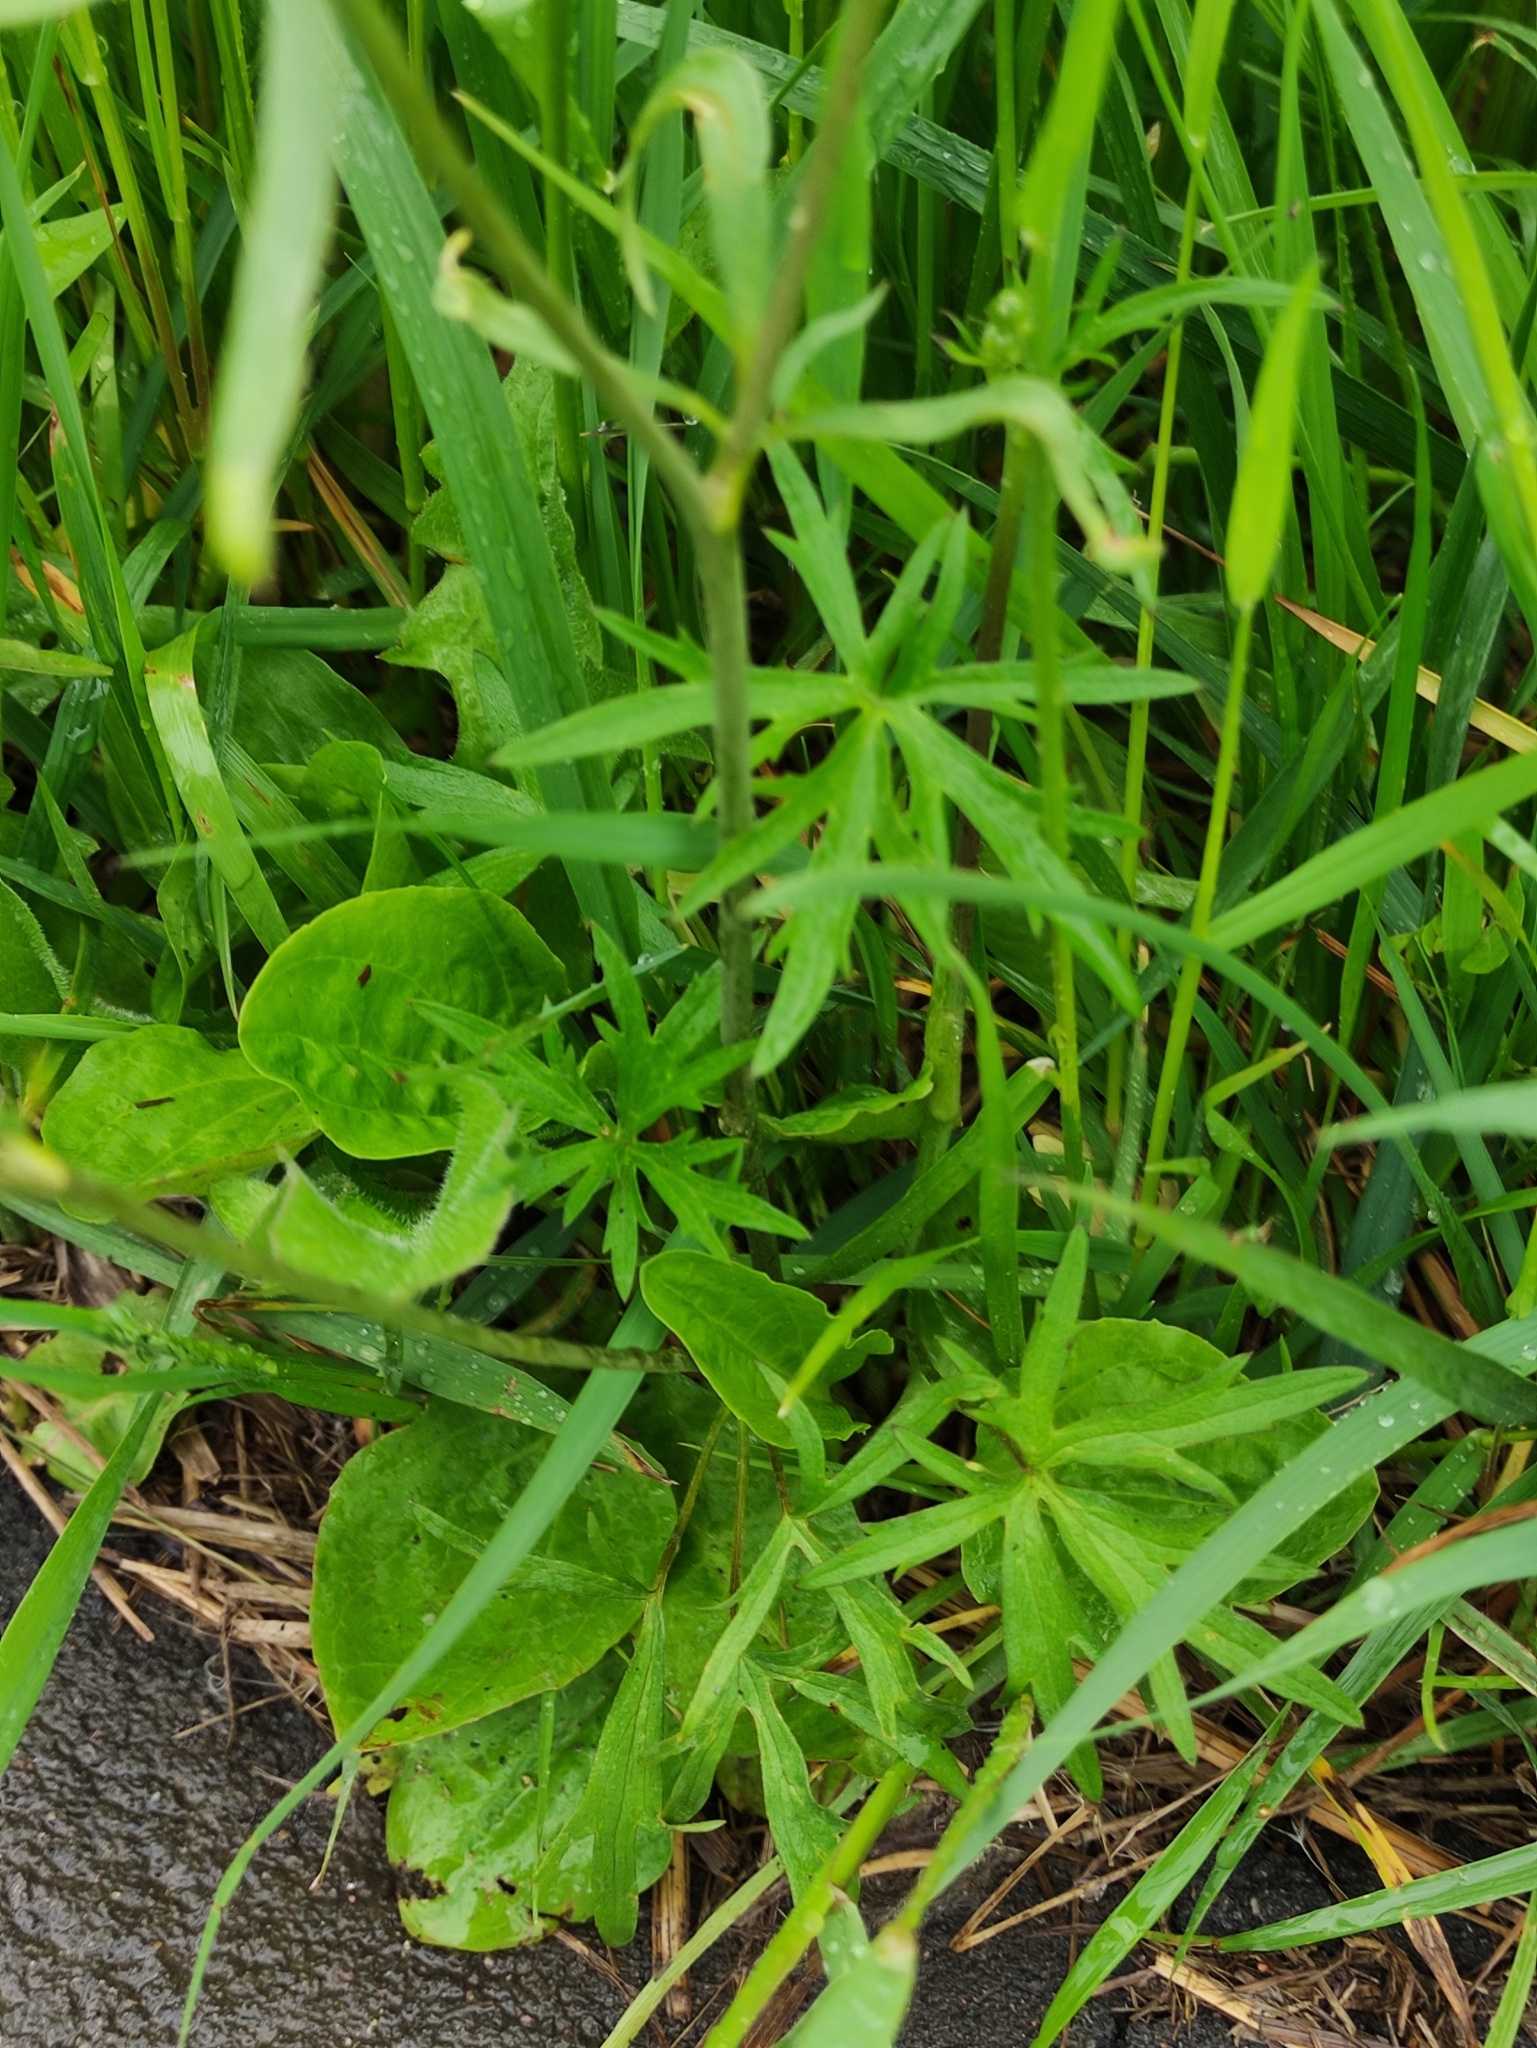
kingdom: Plantae
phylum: Tracheophyta
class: Magnoliopsida
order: Ranunculales
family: Ranunculaceae
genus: Ranunculus
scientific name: Ranunculus acris
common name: Meadow buttercup
